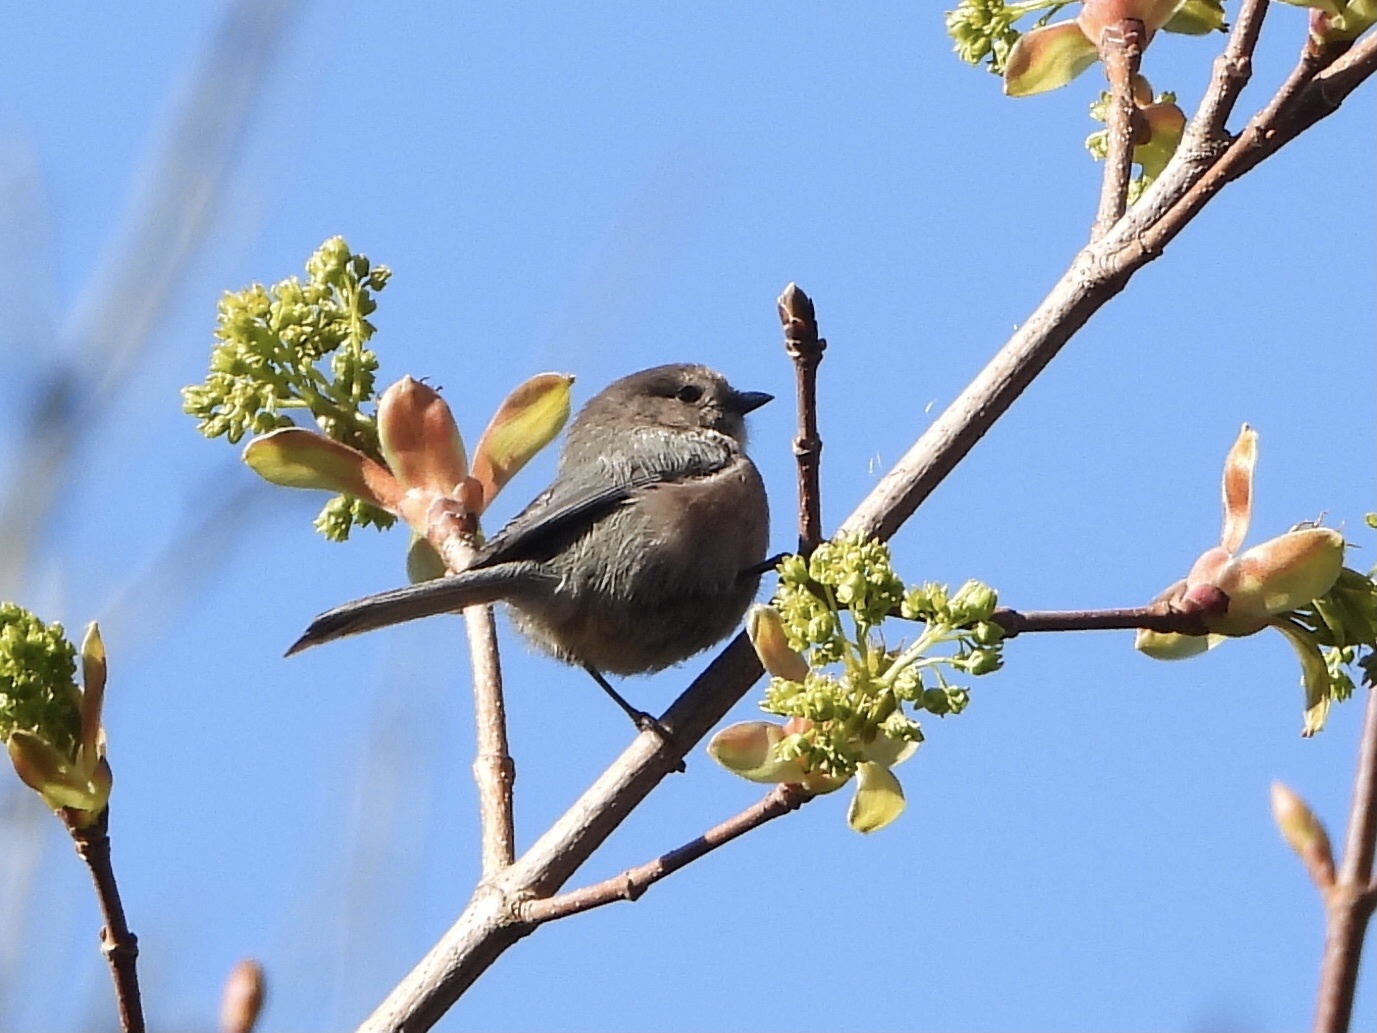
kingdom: Animalia
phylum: Chordata
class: Aves
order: Passeriformes
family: Aegithalidae
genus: Psaltriparus
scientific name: Psaltriparus minimus
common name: American bushtit
